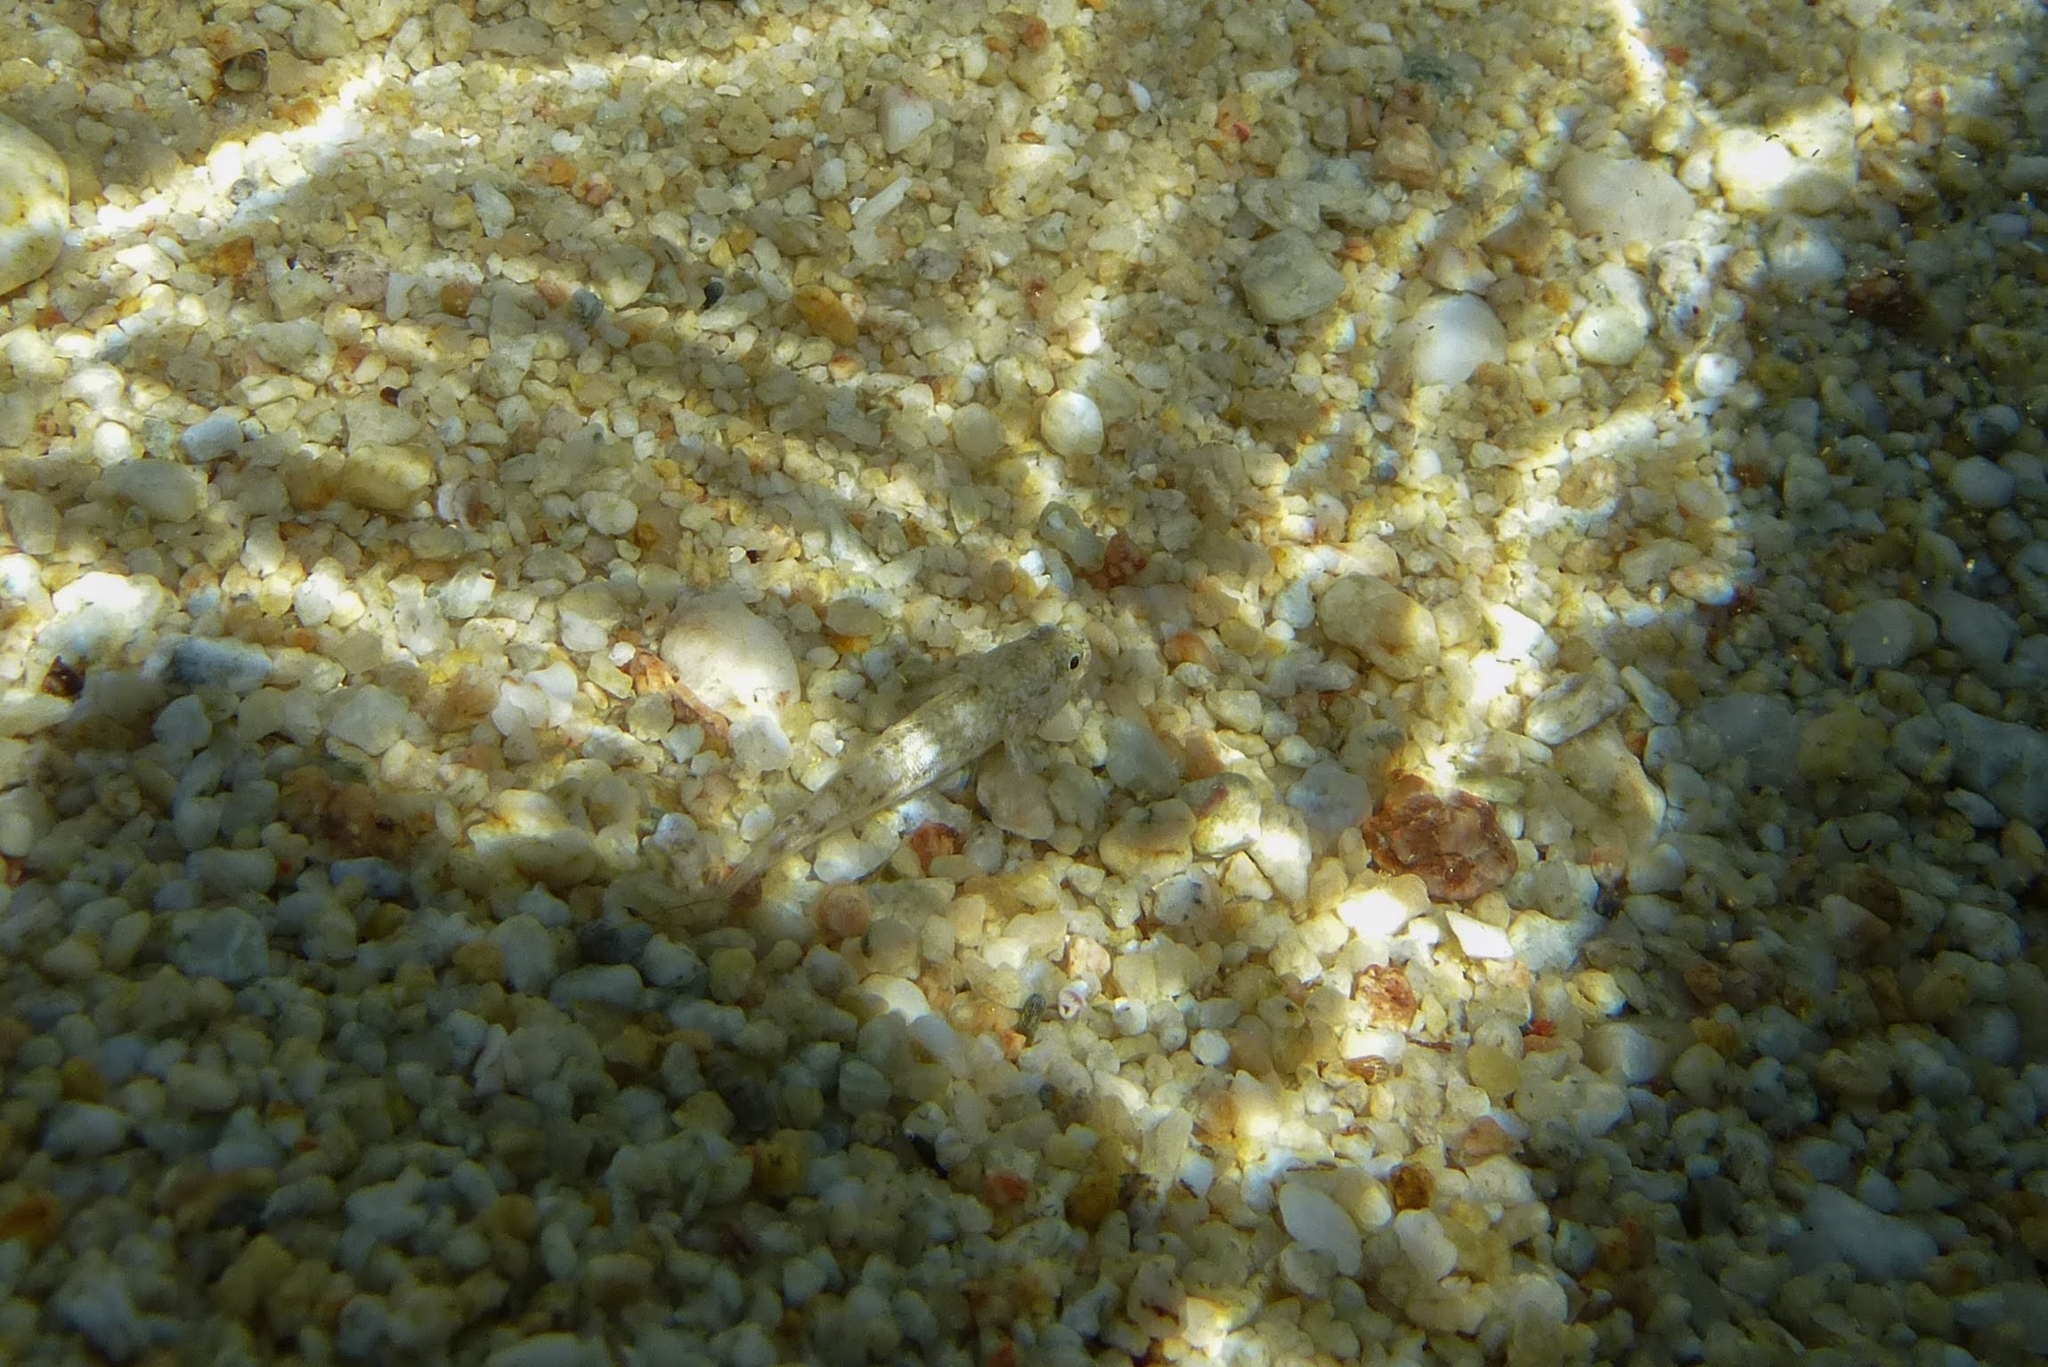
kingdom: Animalia
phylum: Chordata
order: Perciformes
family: Gobiidae
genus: Gobius
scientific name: Gobius cobitis
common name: Giant goby
